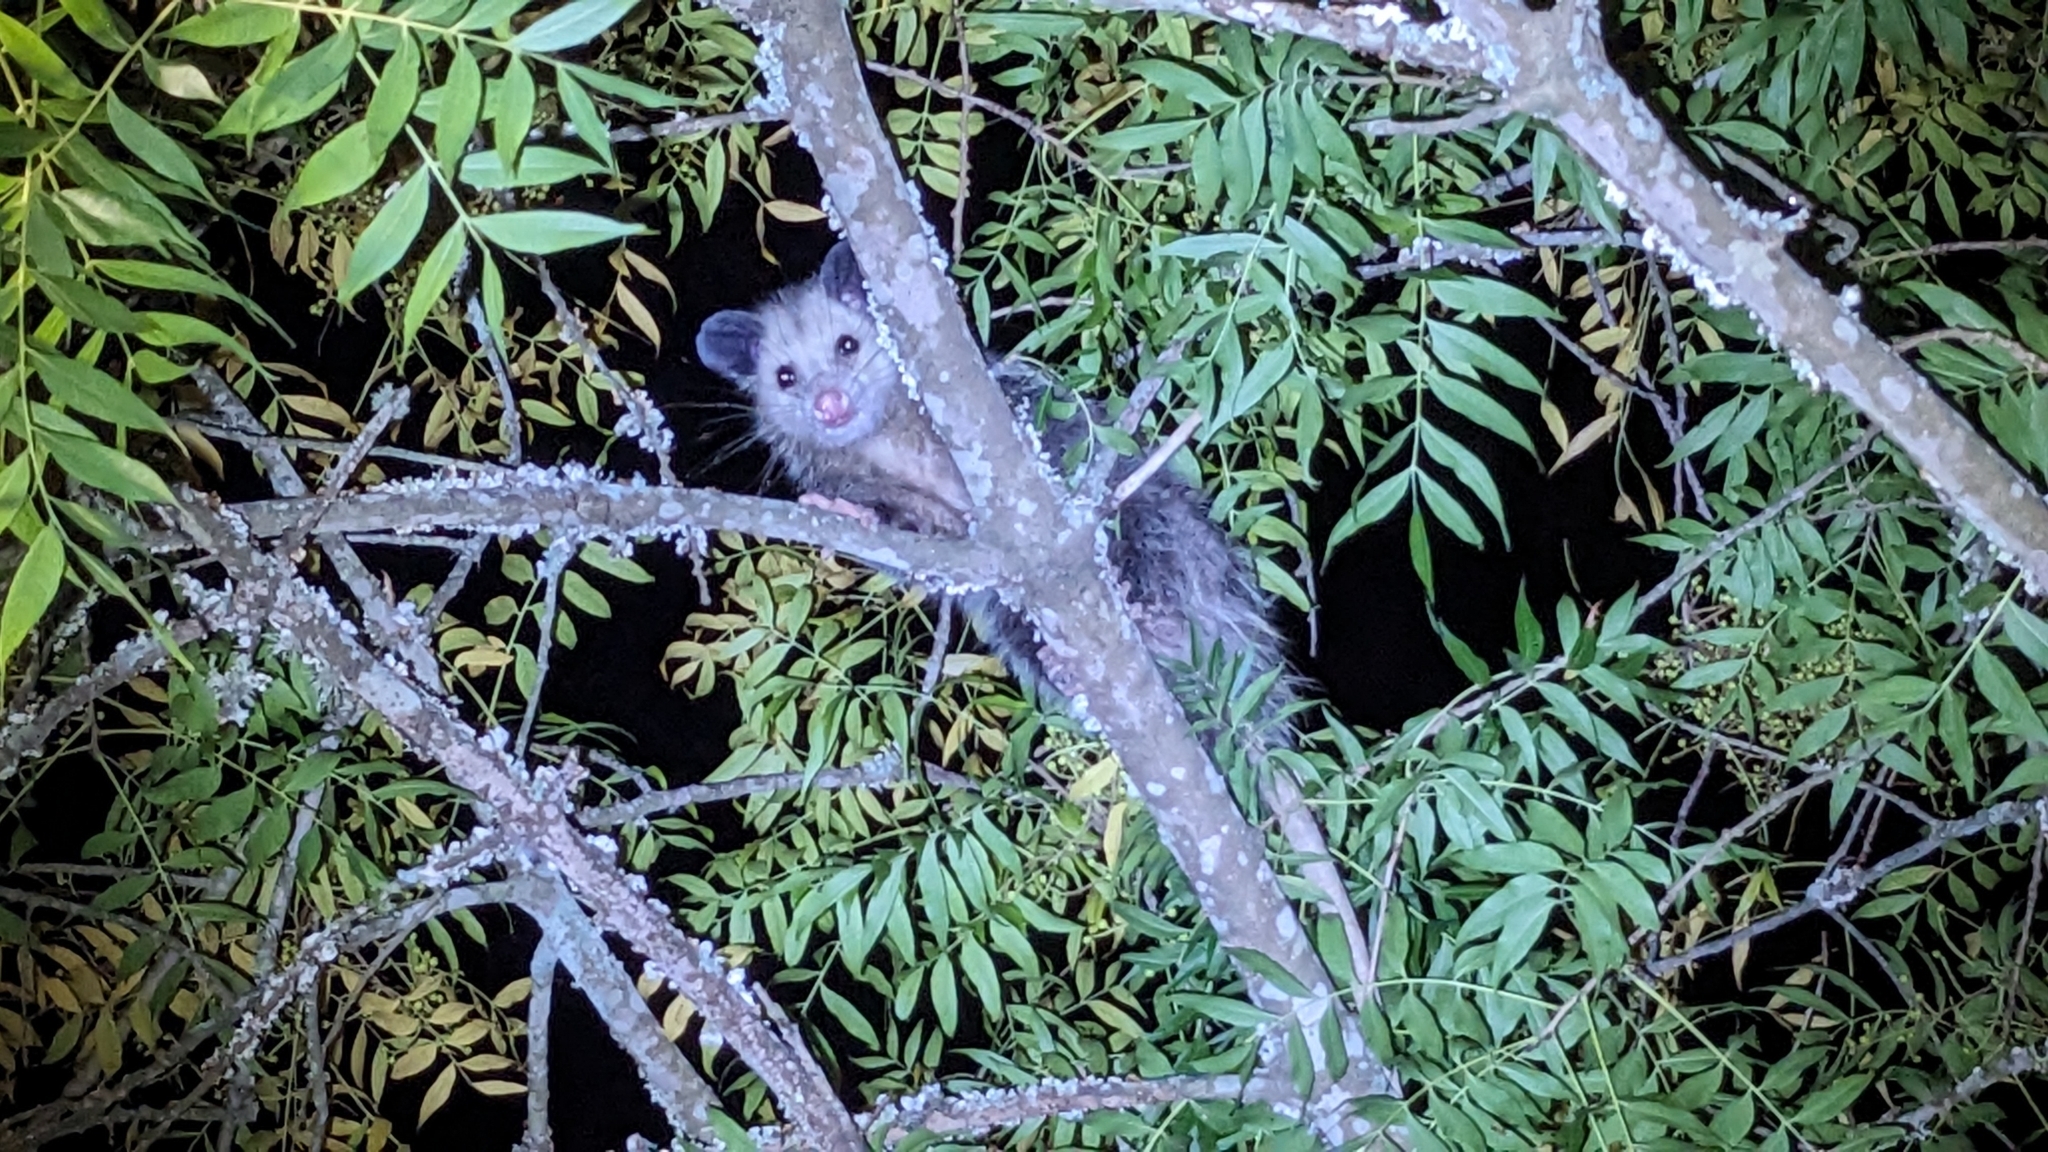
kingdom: Animalia
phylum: Chordata
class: Mammalia
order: Didelphimorphia
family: Didelphidae
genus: Didelphis
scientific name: Didelphis virginiana
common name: Virginia opossum
